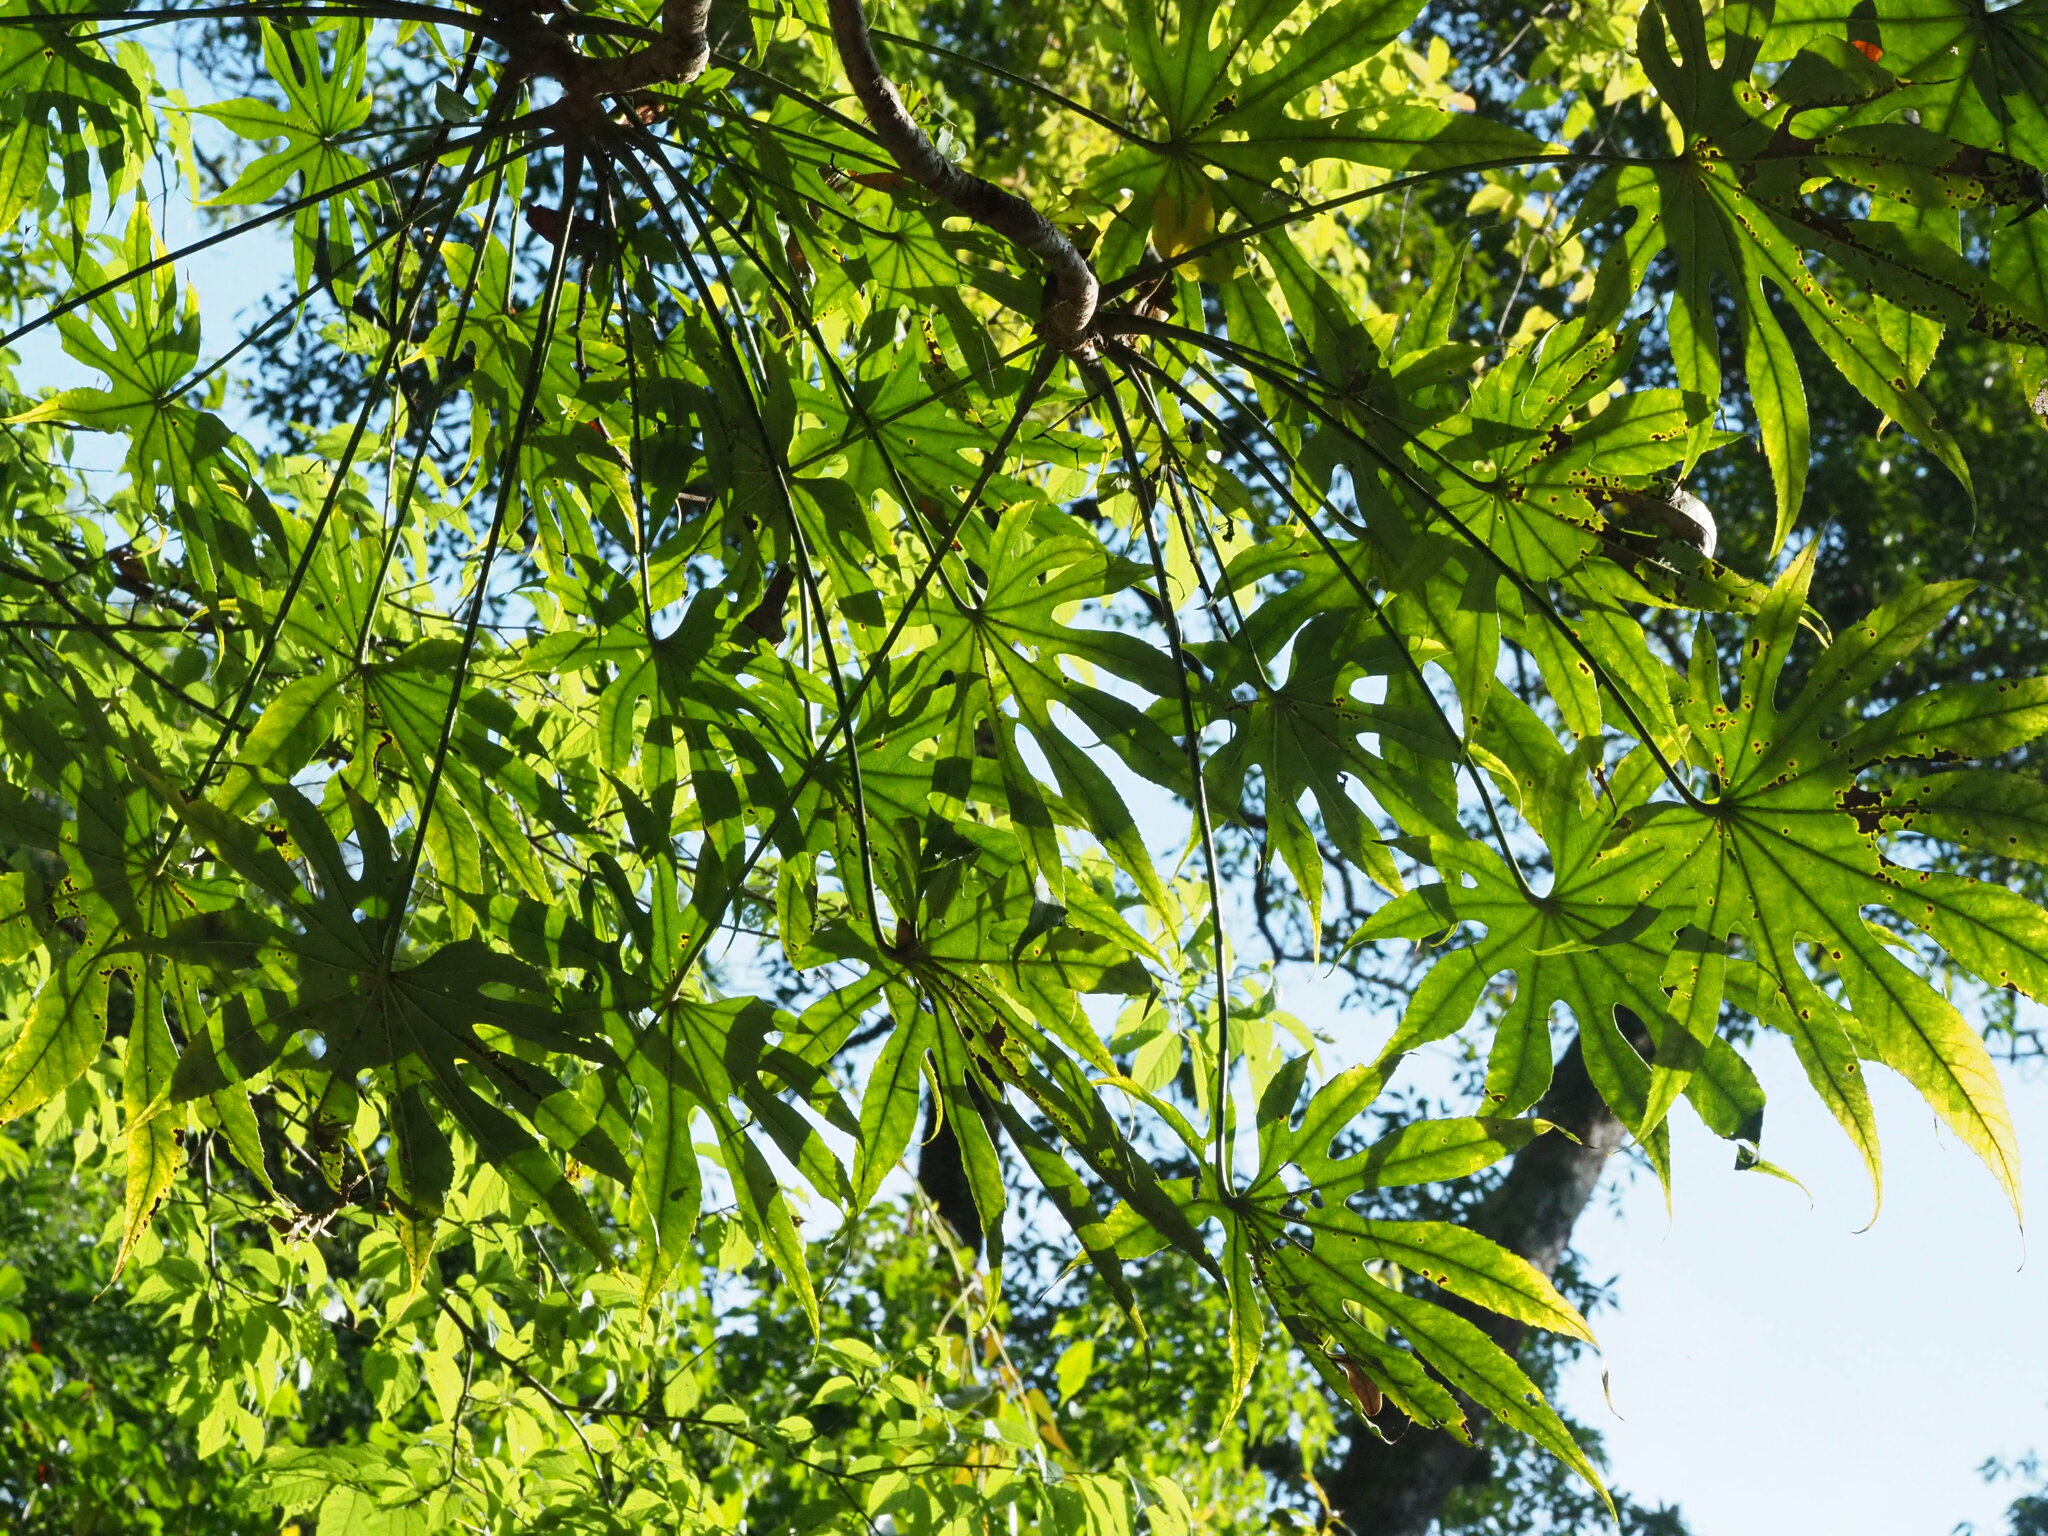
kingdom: Plantae
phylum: Tracheophyta
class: Magnoliopsida
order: Apiales
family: Araliaceae
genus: Fatsia
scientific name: Fatsia polycarpa
